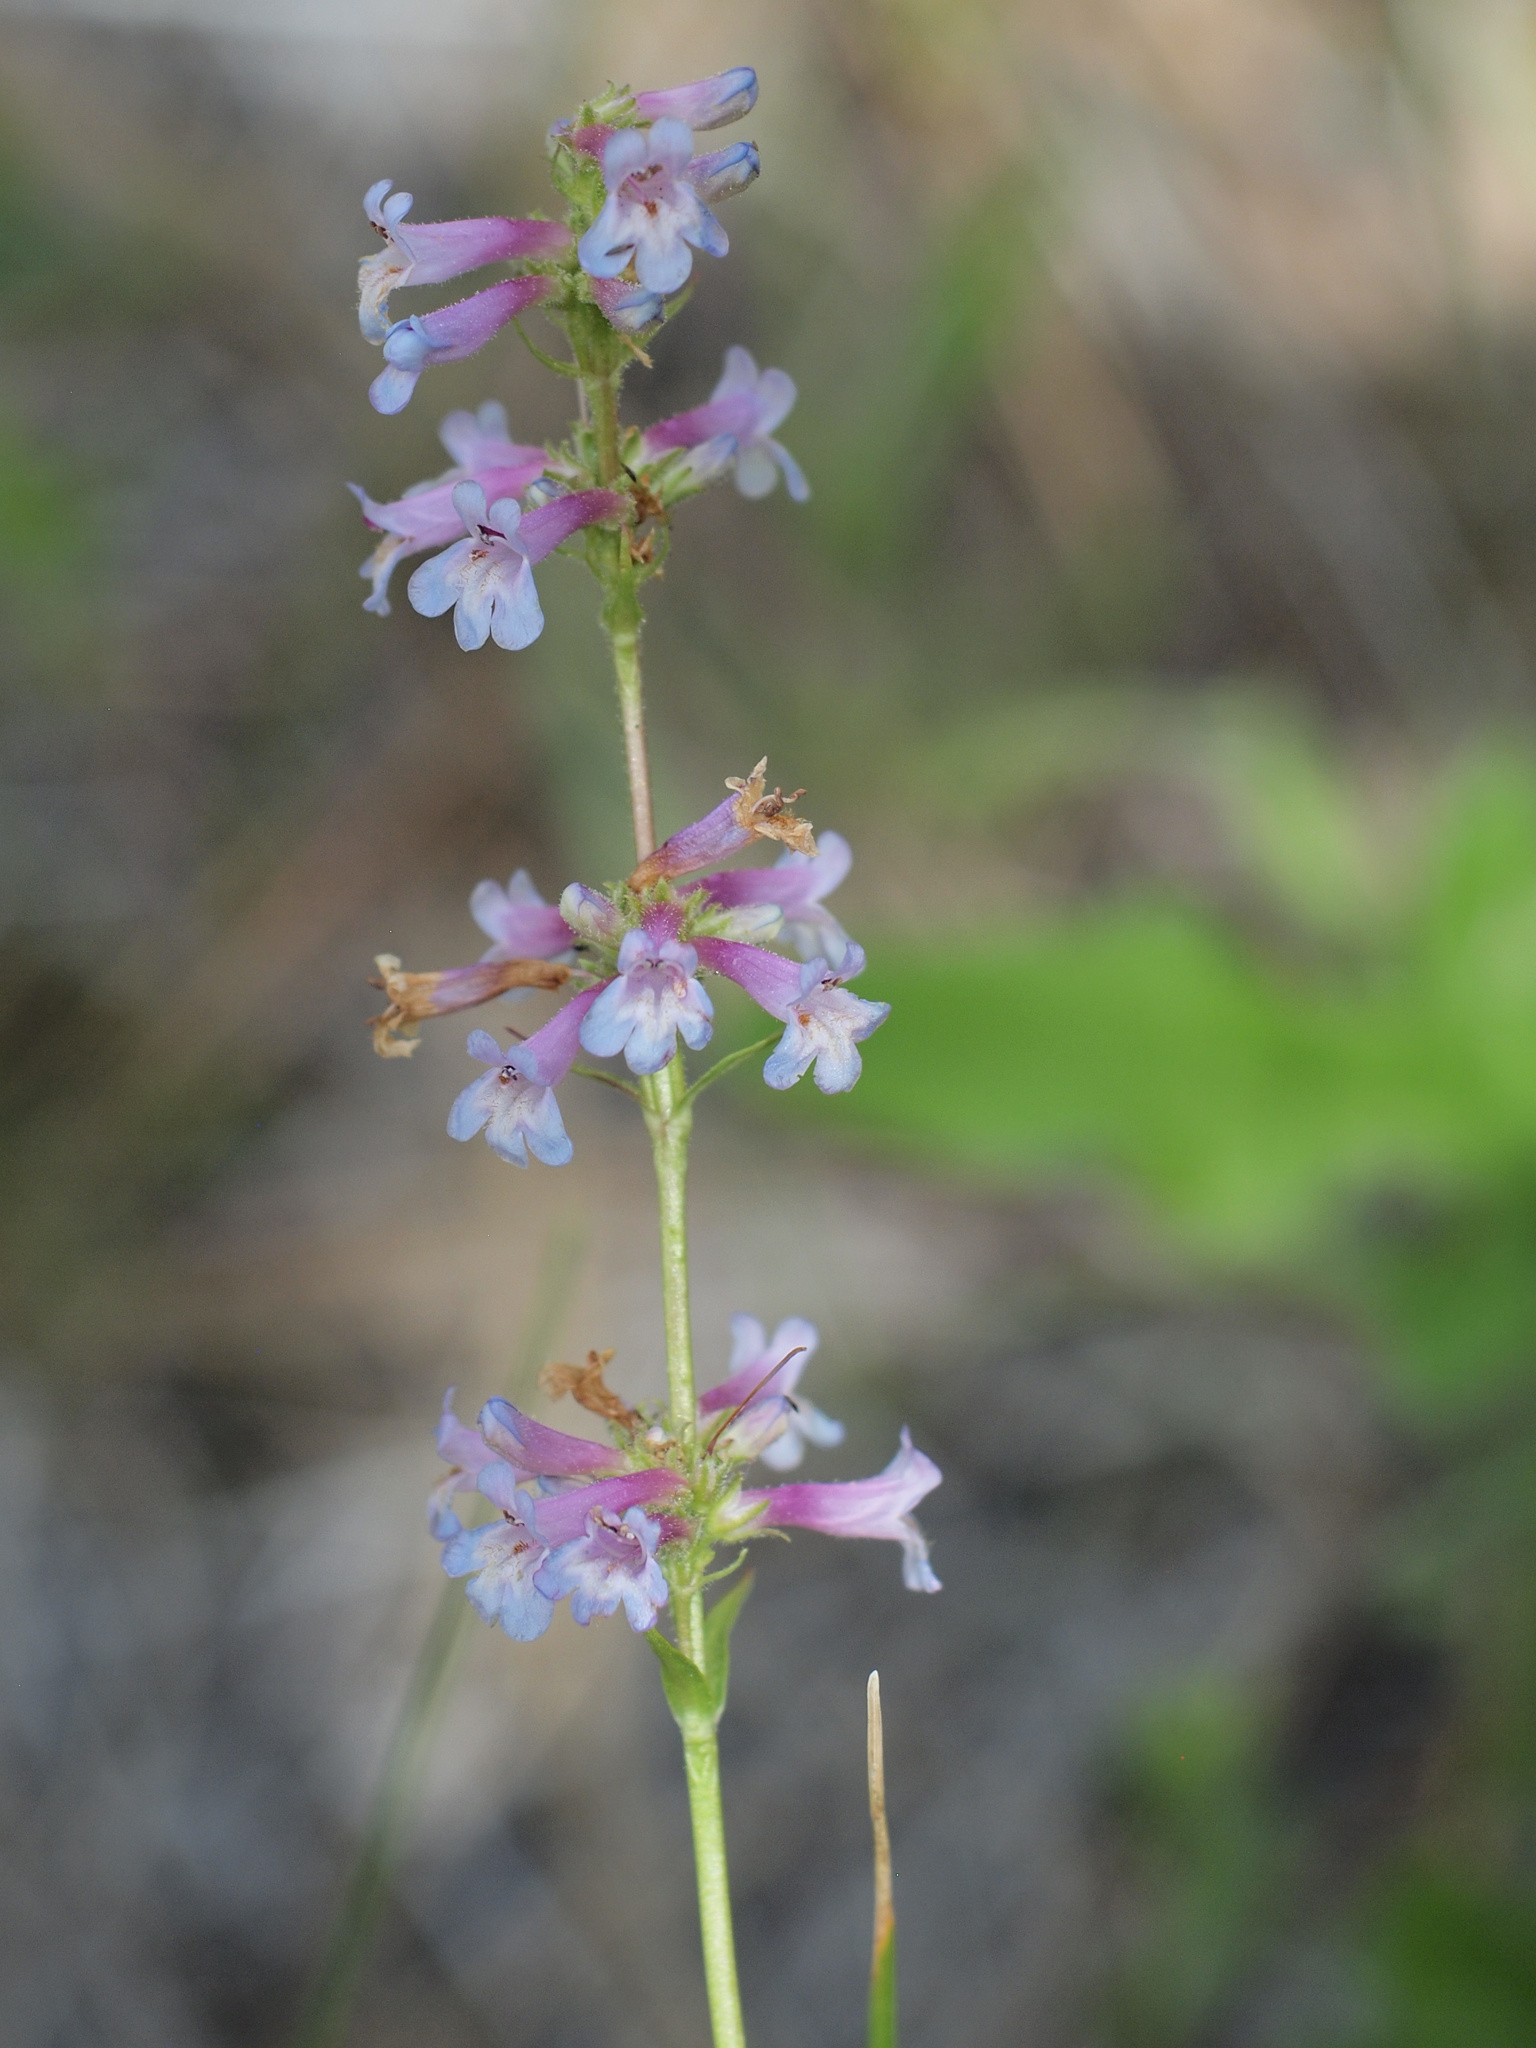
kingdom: Plantae
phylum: Tracheophyta
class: Magnoliopsida
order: Lamiales
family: Plantaginaceae
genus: Penstemon
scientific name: Penstemon peckii
